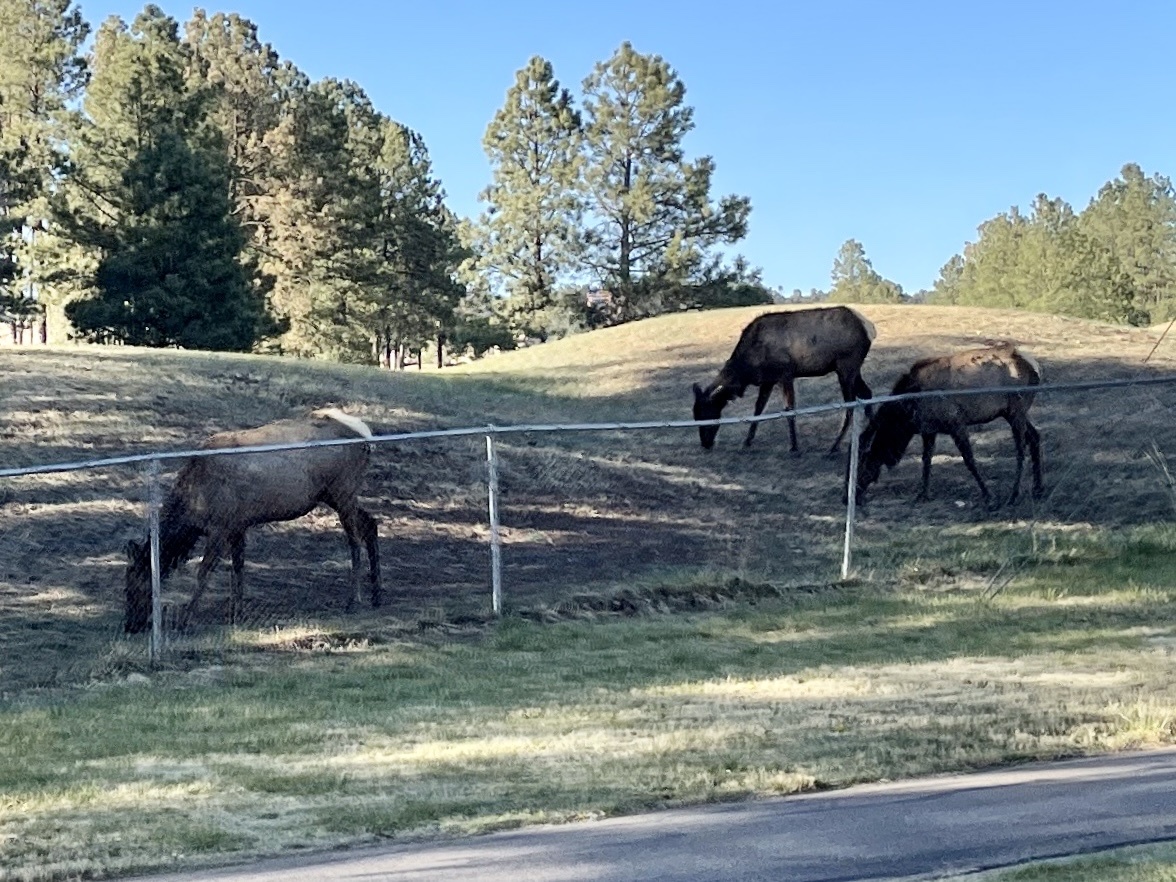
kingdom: Animalia
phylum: Chordata
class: Mammalia
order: Artiodactyla
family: Cervidae
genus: Cervus
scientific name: Cervus elaphus
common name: Red deer
